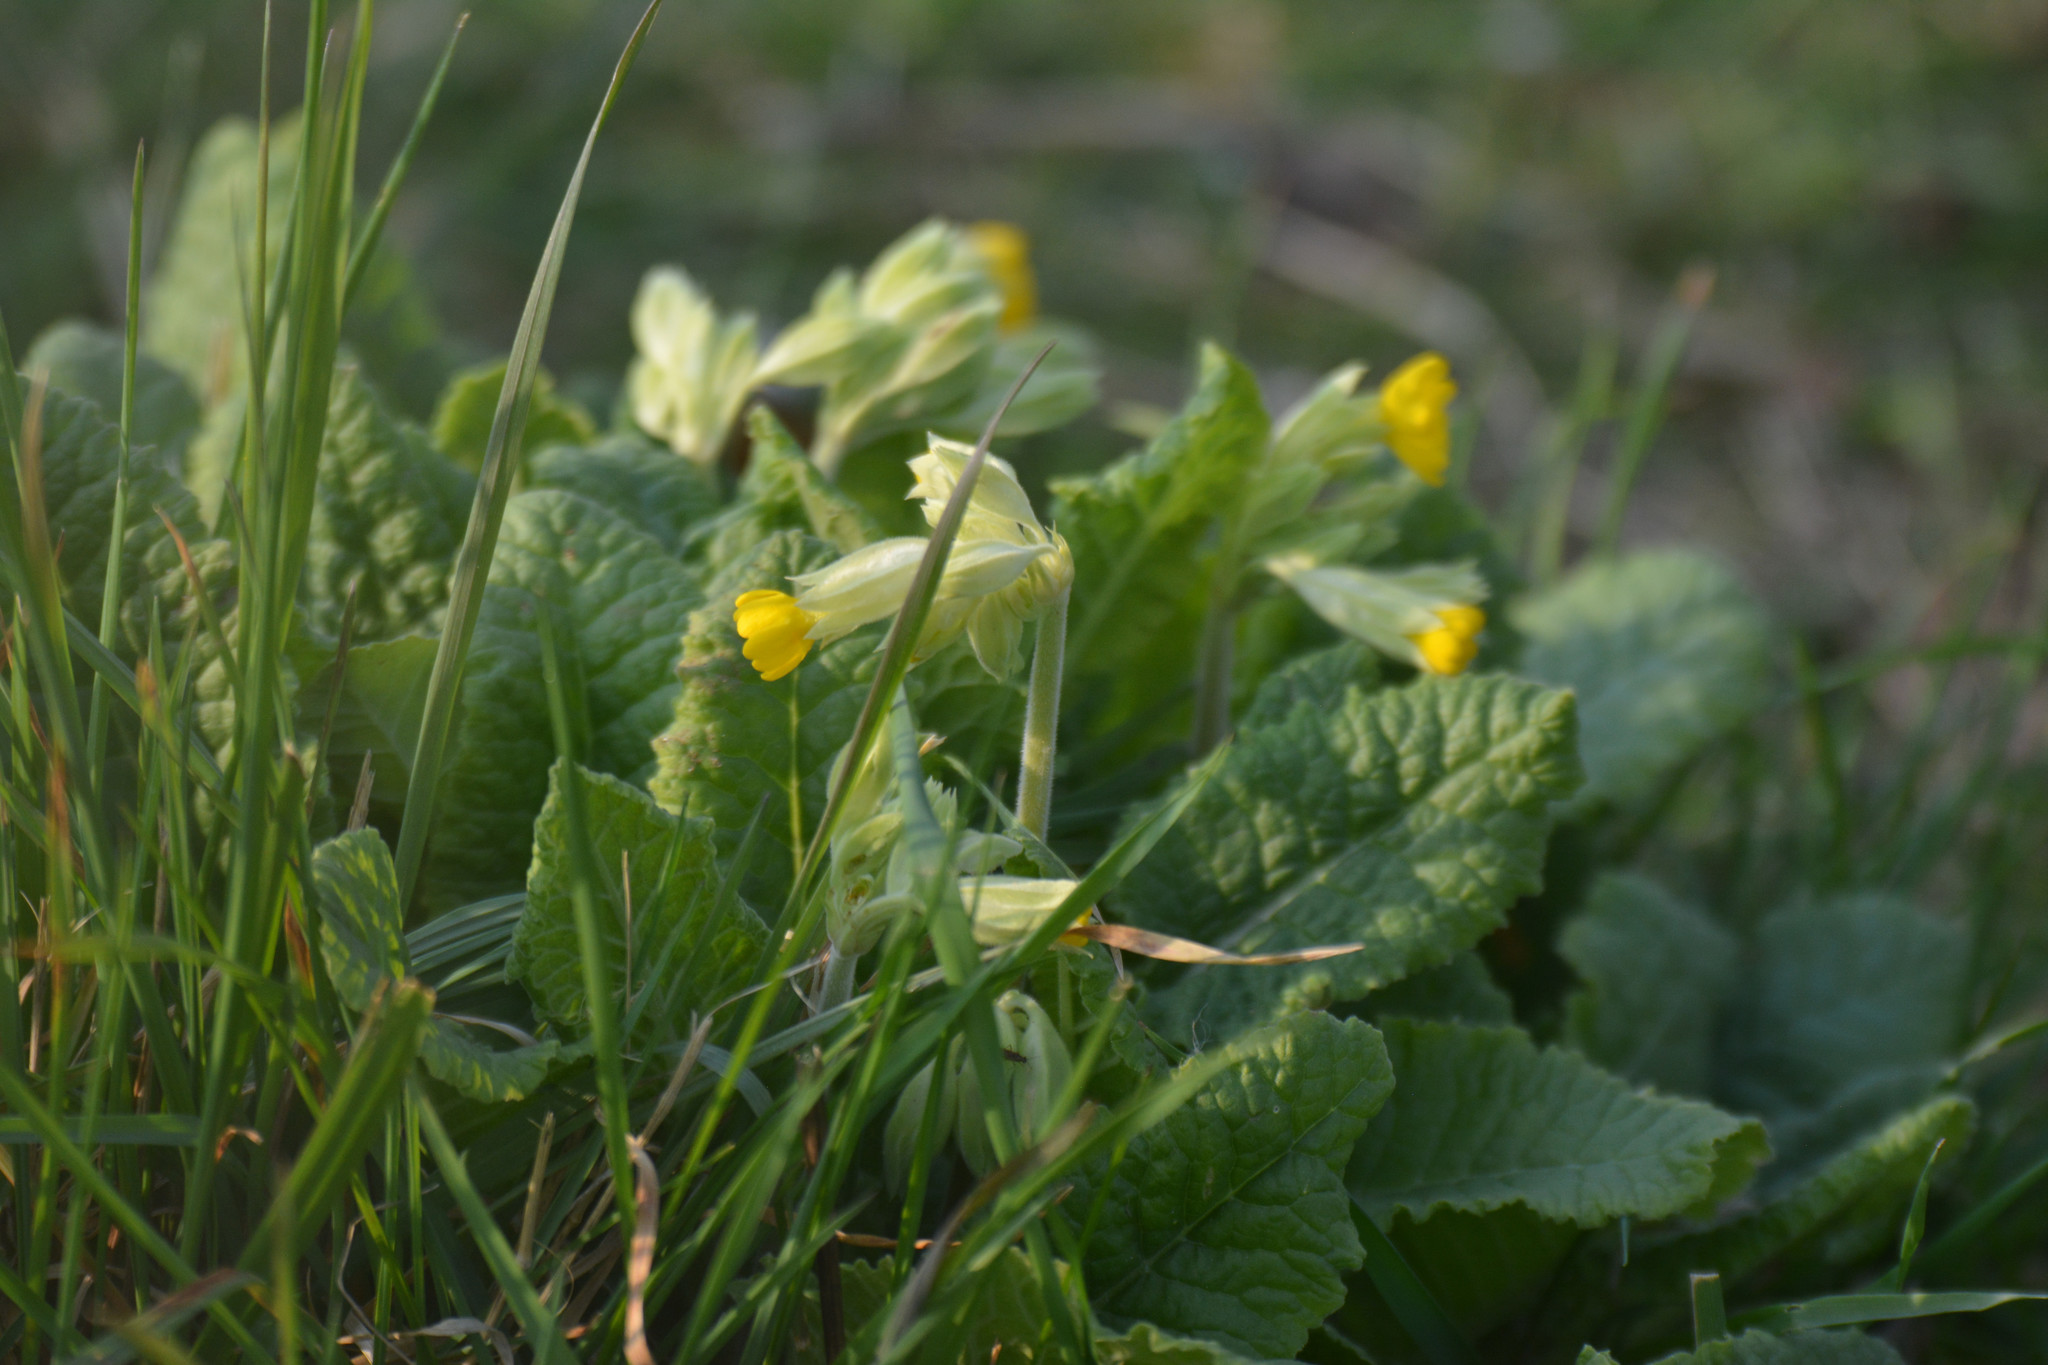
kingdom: Plantae
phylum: Tracheophyta
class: Magnoliopsida
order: Ericales
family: Primulaceae
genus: Primula
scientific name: Primula veris
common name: Cowslip
